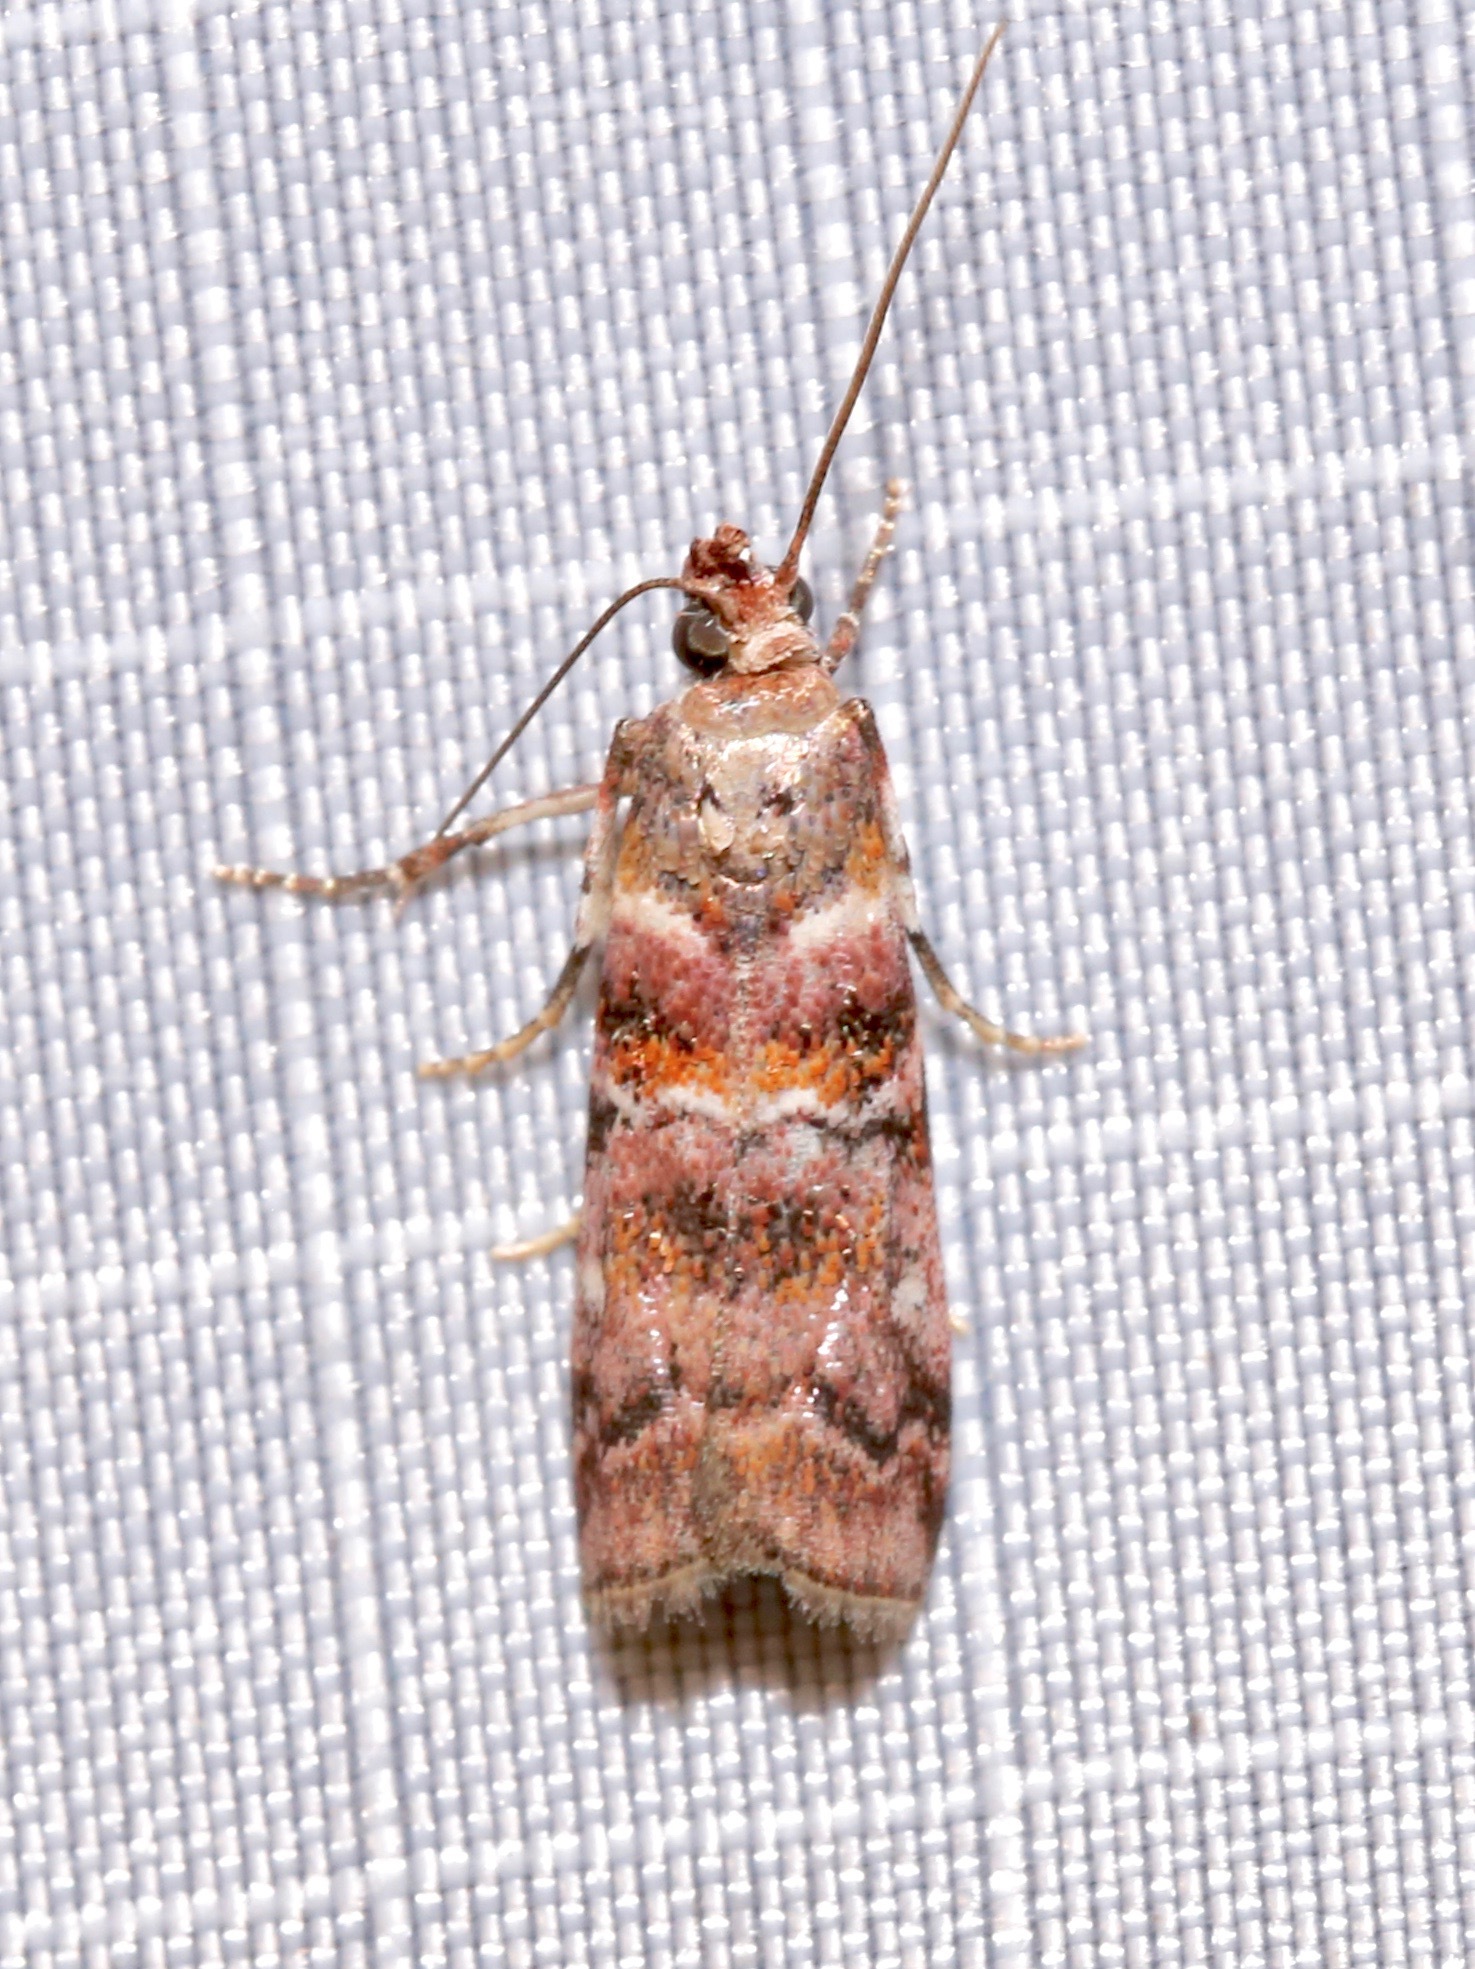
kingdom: Animalia
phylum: Arthropoda
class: Insecta
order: Lepidoptera
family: Pyralidae
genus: Dioryctria
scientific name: Dioryctria pygmaeella
